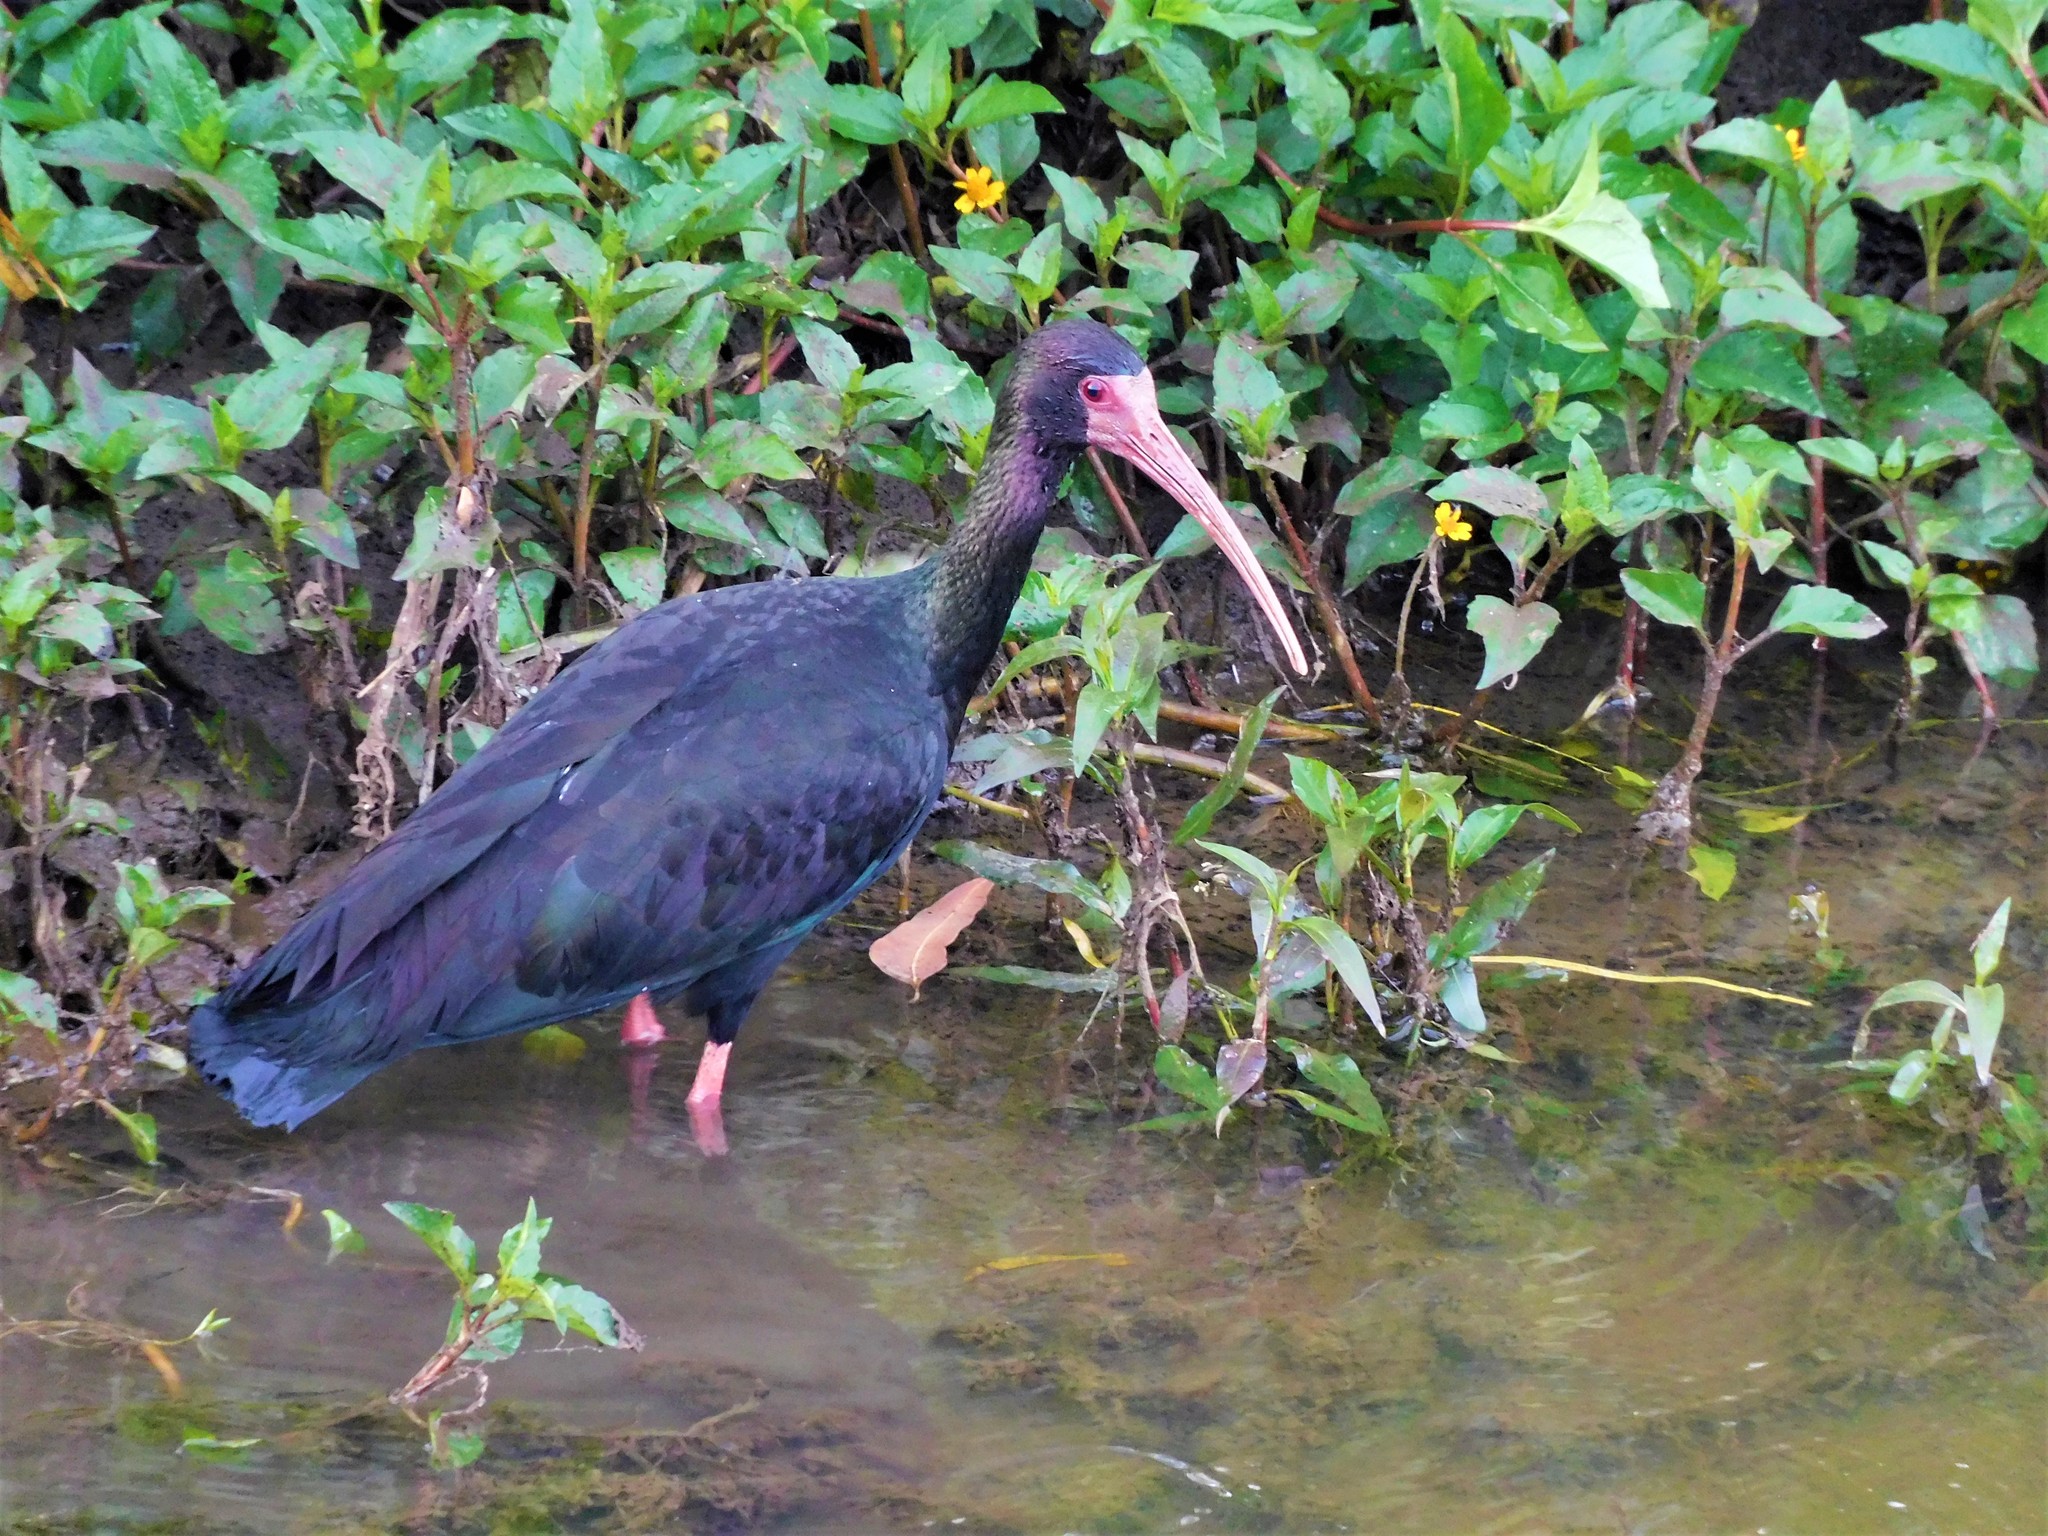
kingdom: Animalia
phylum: Chordata
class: Aves
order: Pelecaniformes
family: Threskiornithidae
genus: Phimosus
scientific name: Phimosus infuscatus
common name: Bare-faced ibis
